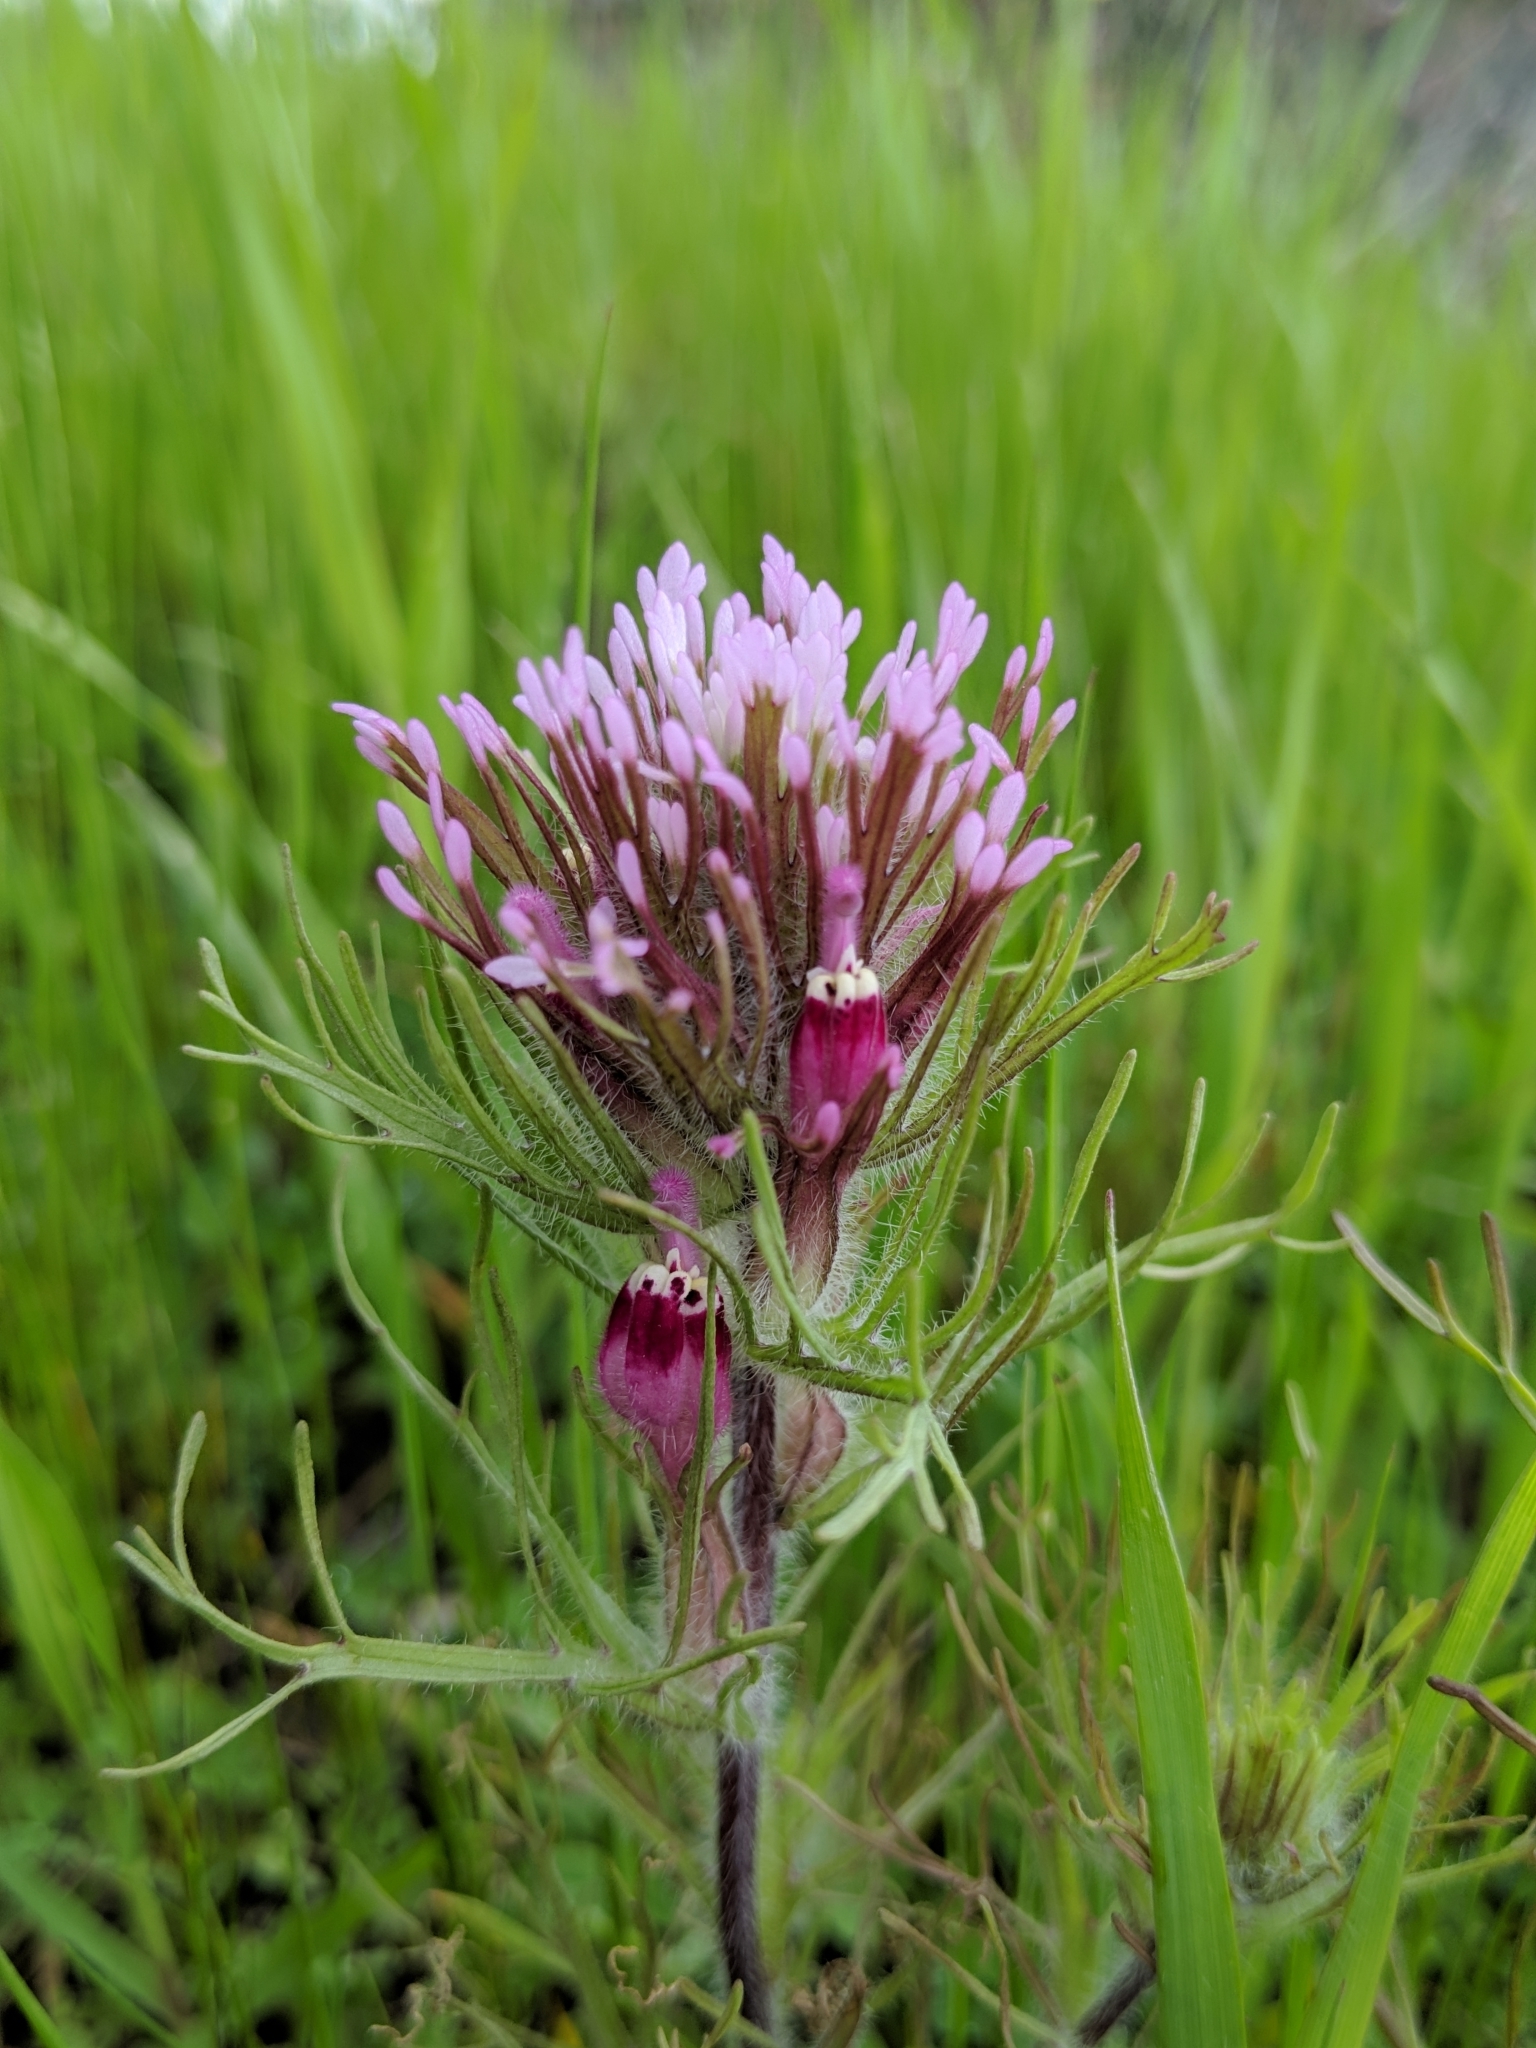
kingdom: Plantae
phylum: Tracheophyta
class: Magnoliopsida
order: Lamiales
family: Orobanchaceae
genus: Castilleja
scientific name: Castilleja exserta
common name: Purple owl-clover
